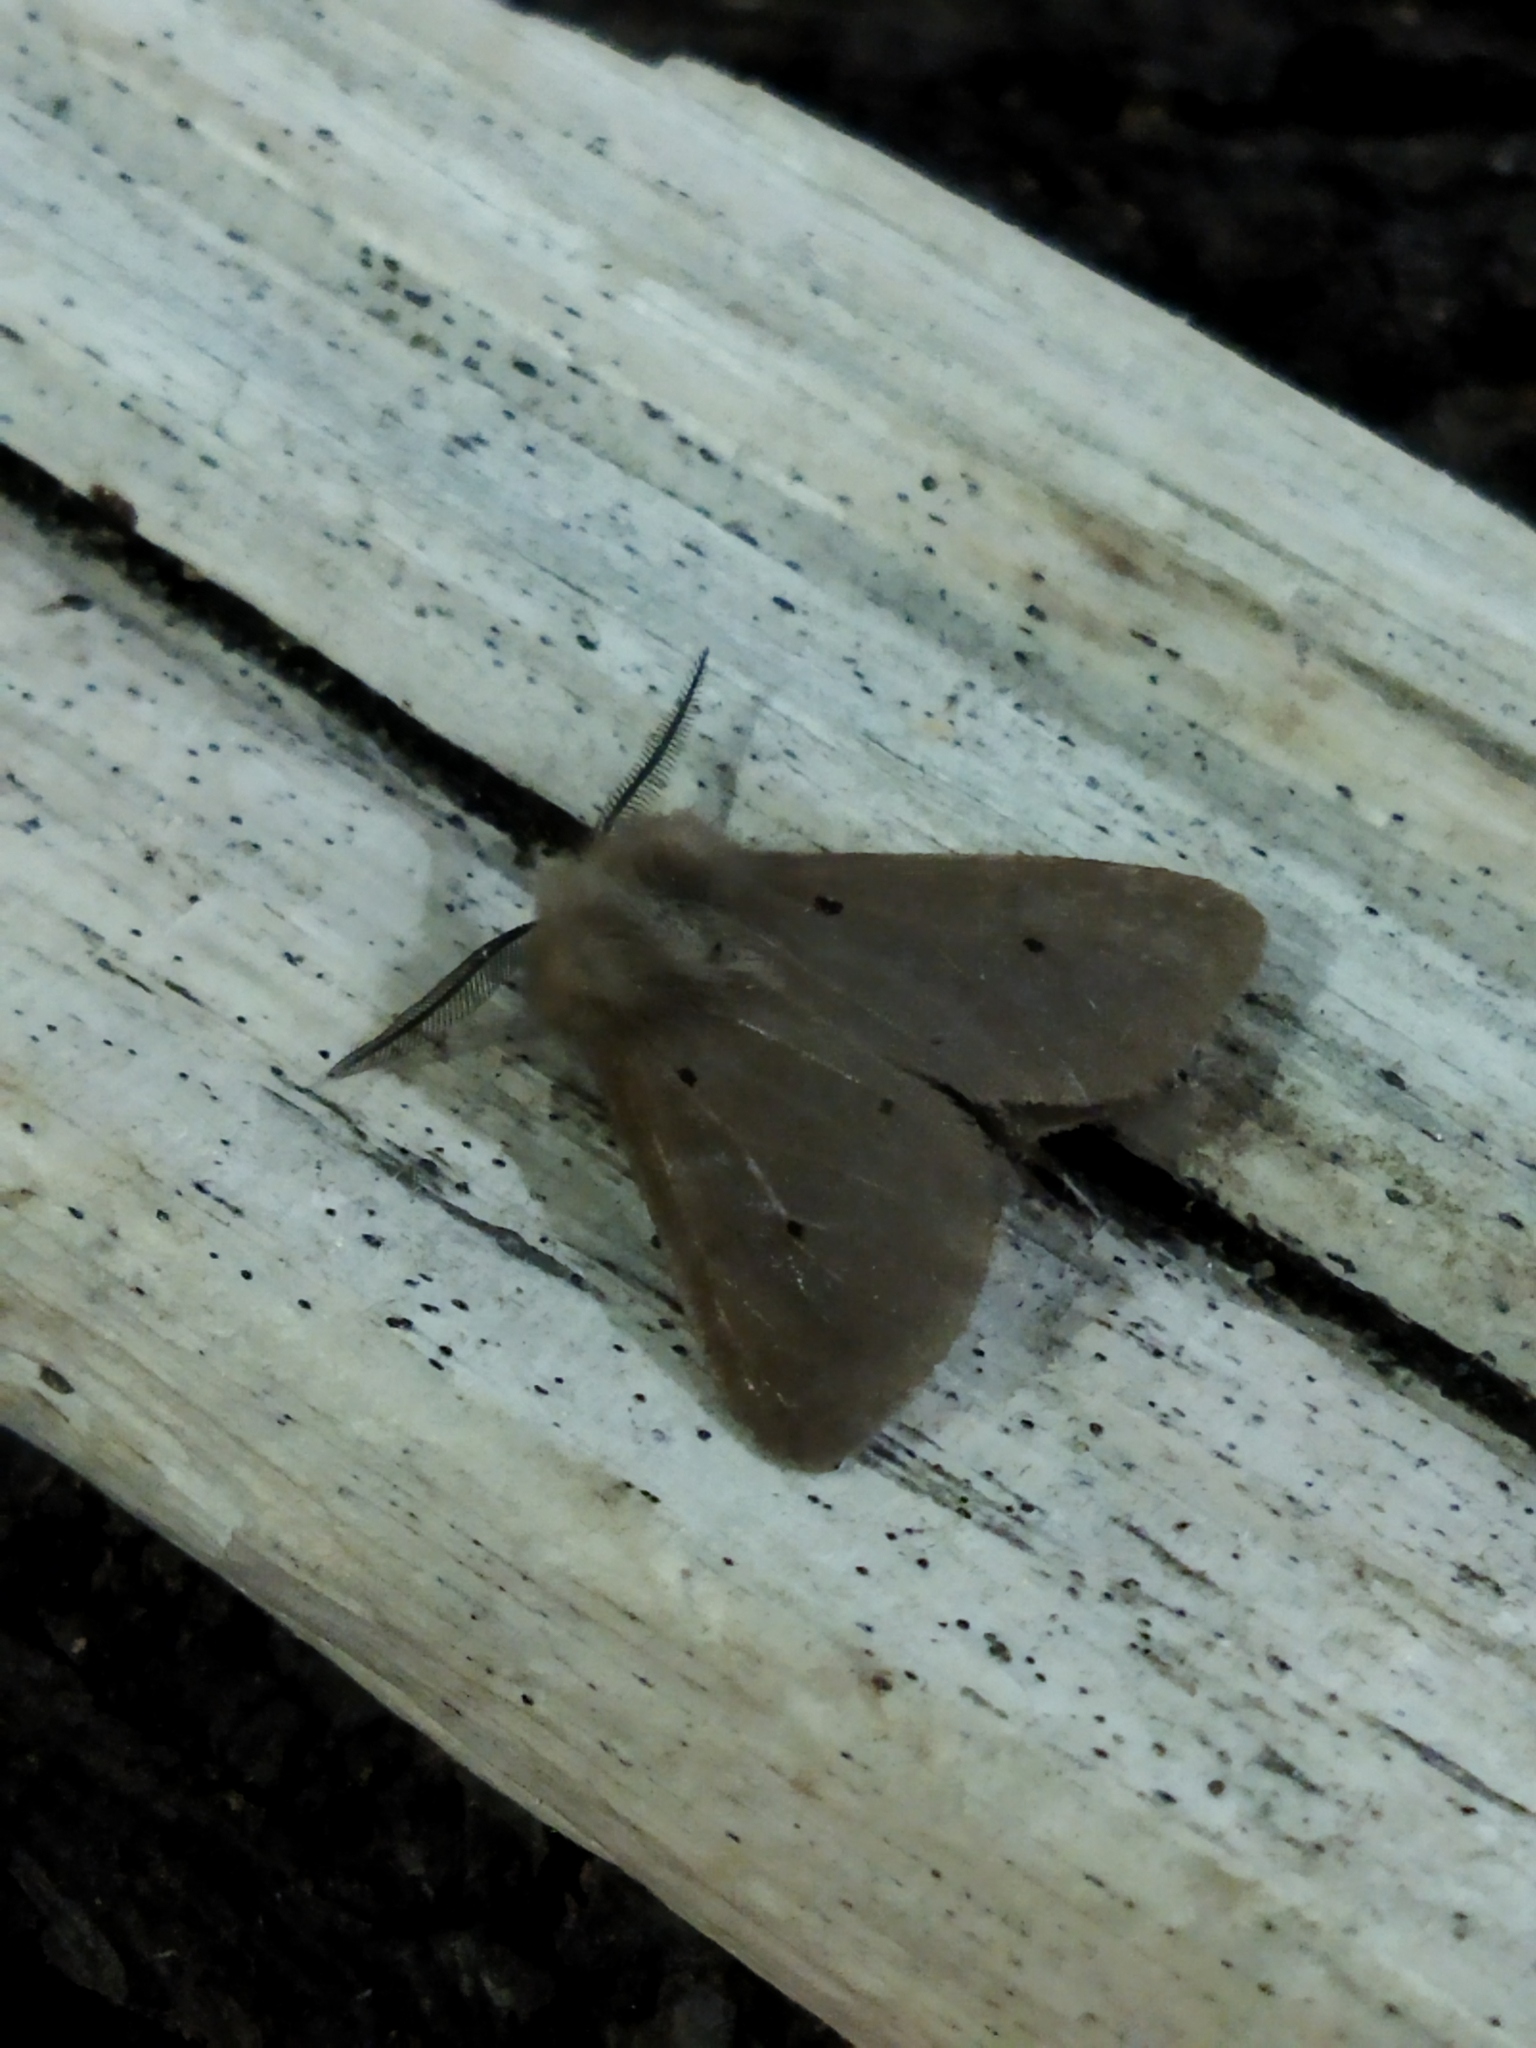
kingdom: Animalia
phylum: Arthropoda
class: Insecta
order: Lepidoptera
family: Erebidae
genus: Diaphora
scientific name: Diaphora mendica
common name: Muslin moth
